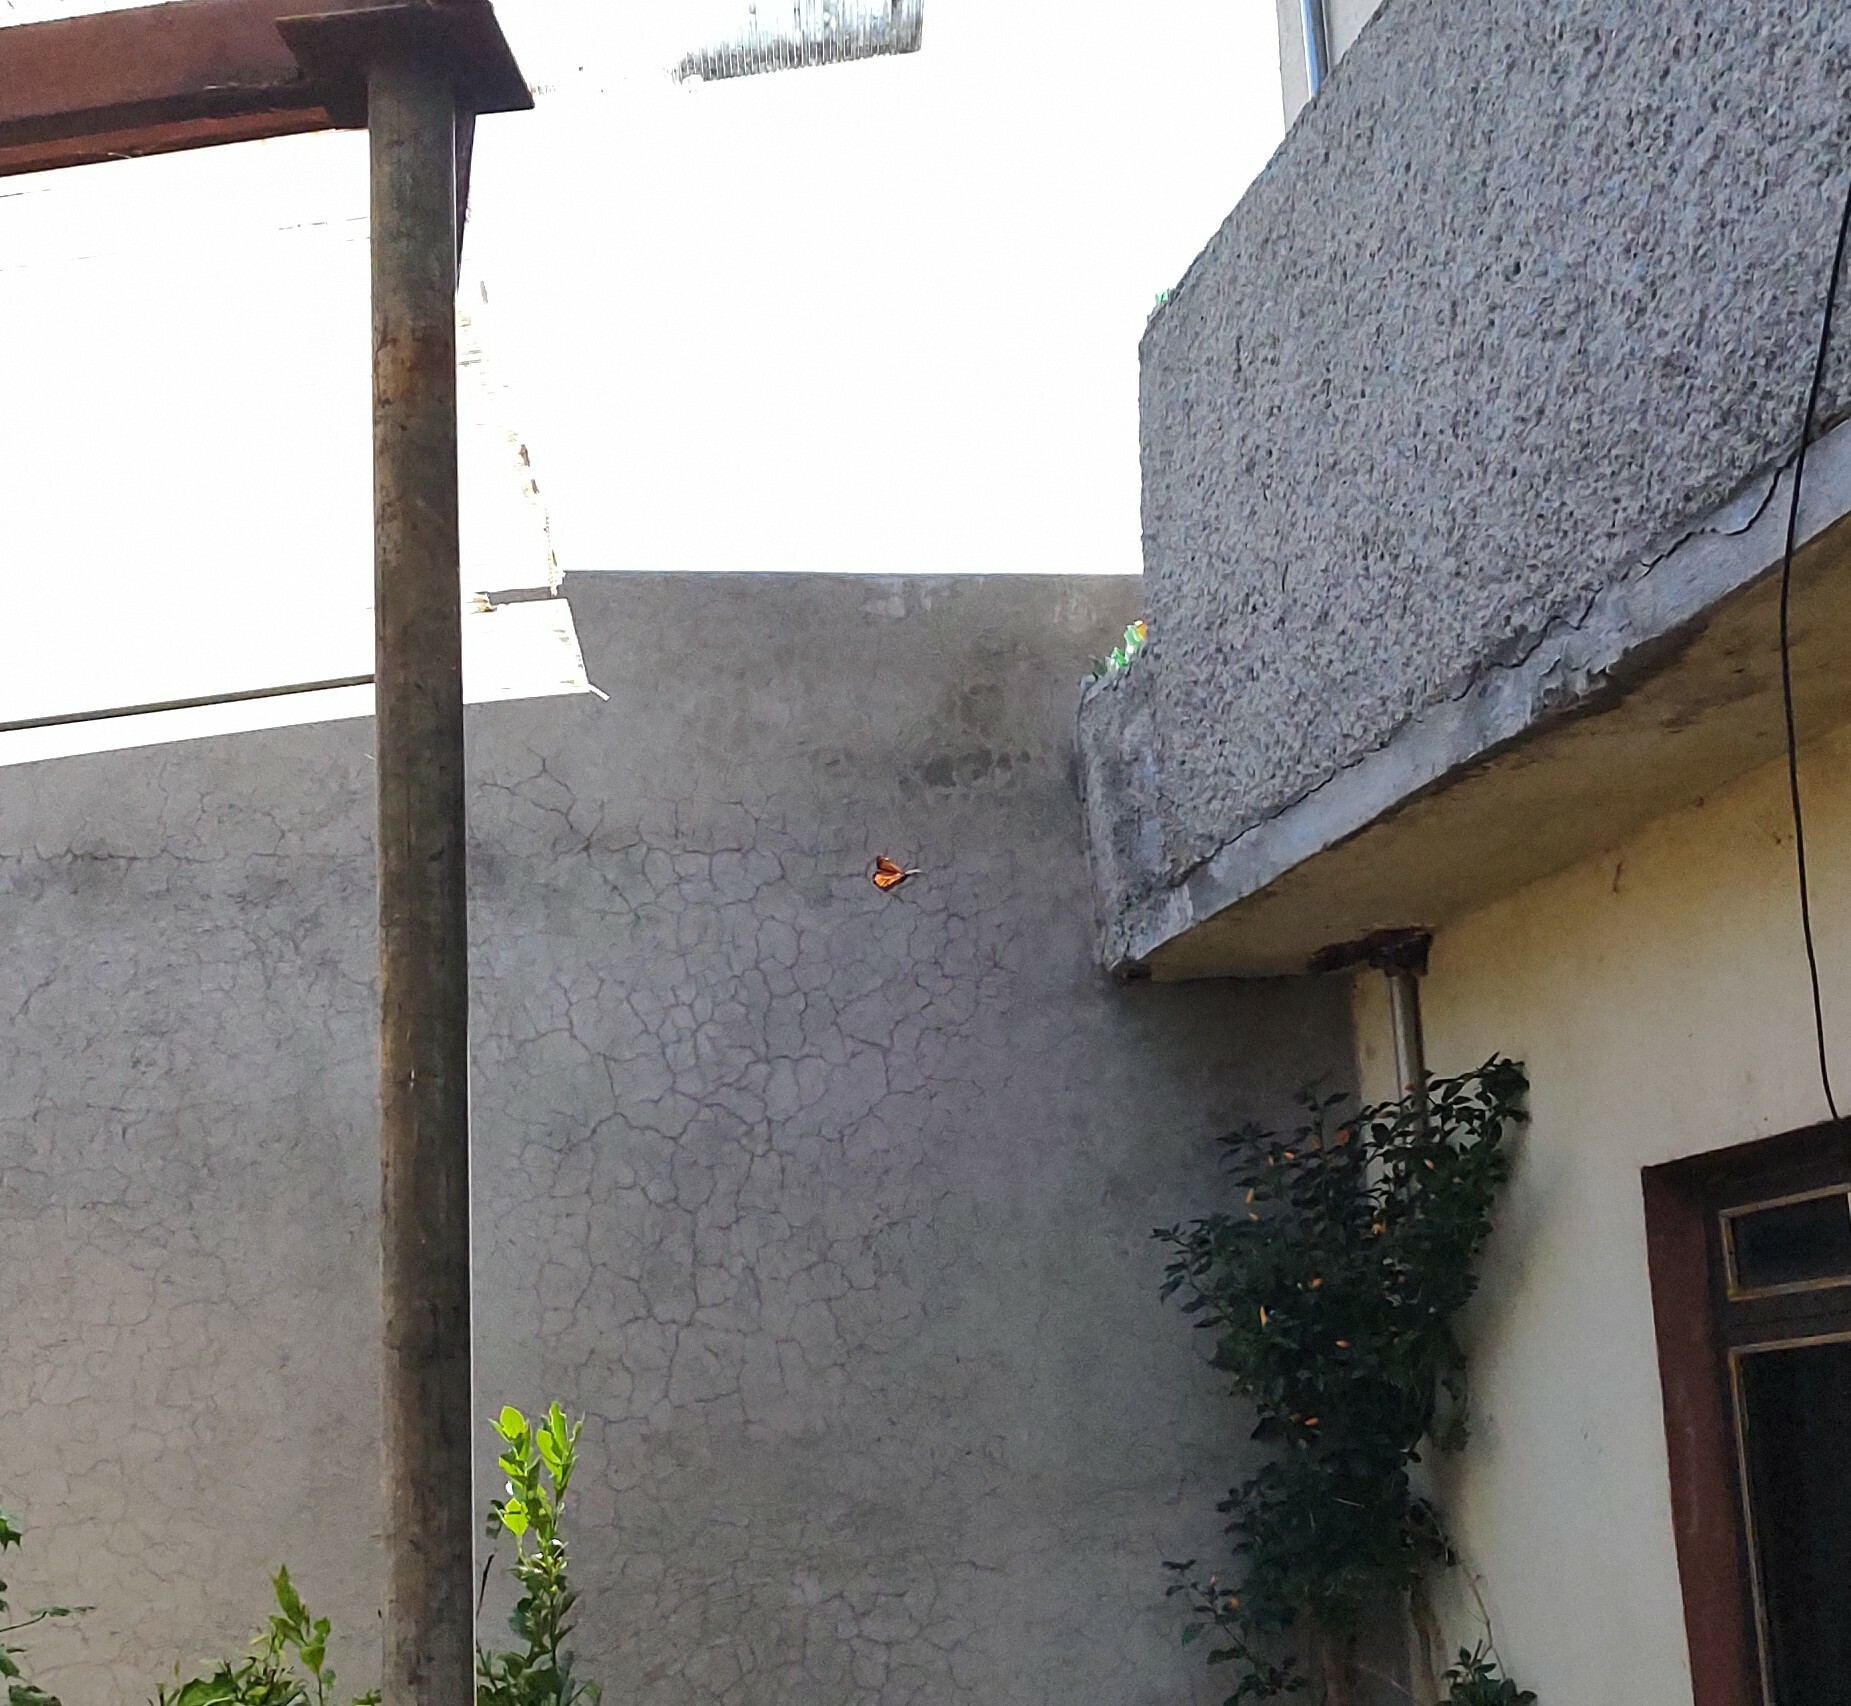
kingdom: Animalia
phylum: Arthropoda
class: Insecta
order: Lepidoptera
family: Nymphalidae
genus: Danaus
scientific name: Danaus plexippus
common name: Monarch
